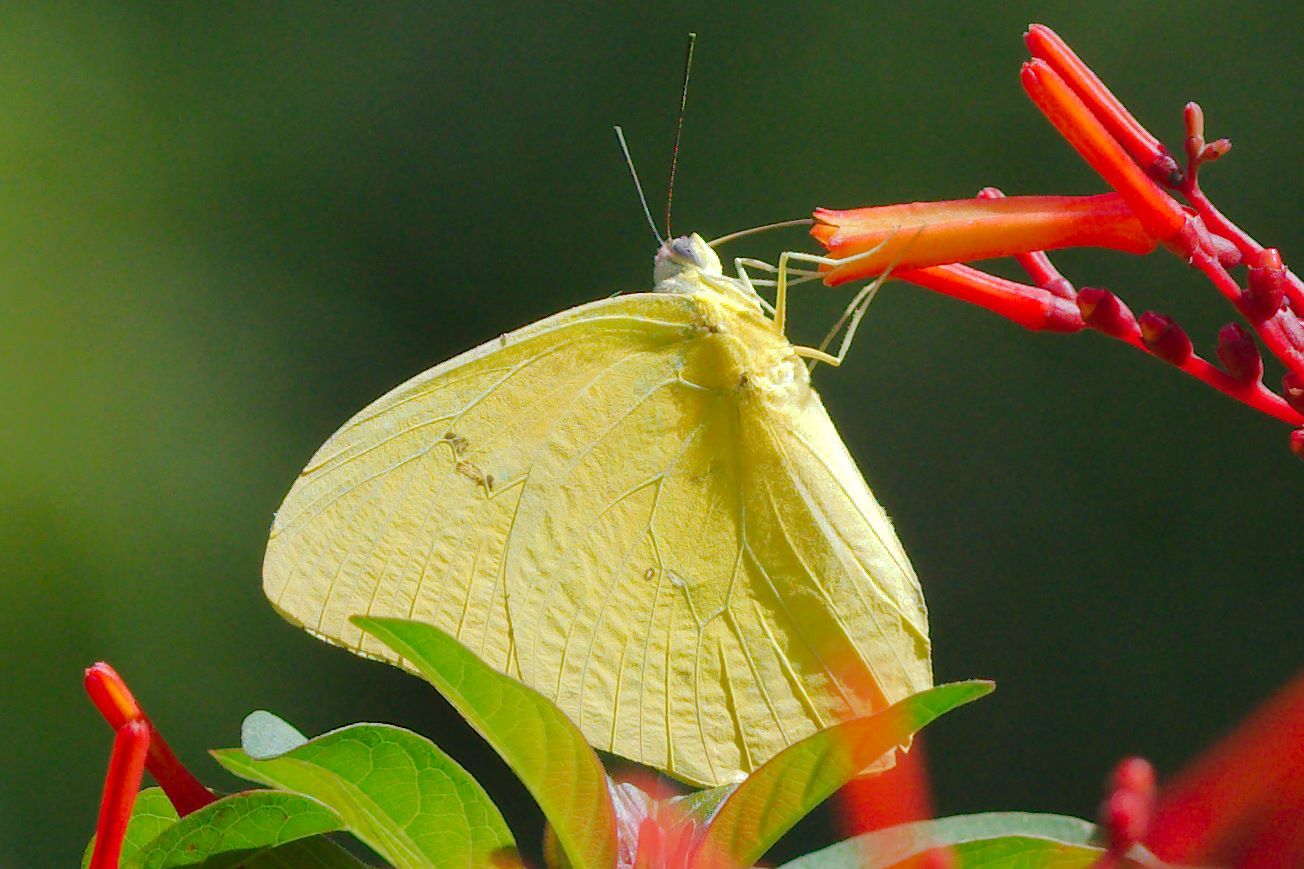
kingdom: Animalia
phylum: Arthropoda
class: Insecta
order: Lepidoptera
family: Pieridae
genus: Phoebis
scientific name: Phoebis philea
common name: Orange-barred giant sulphur
